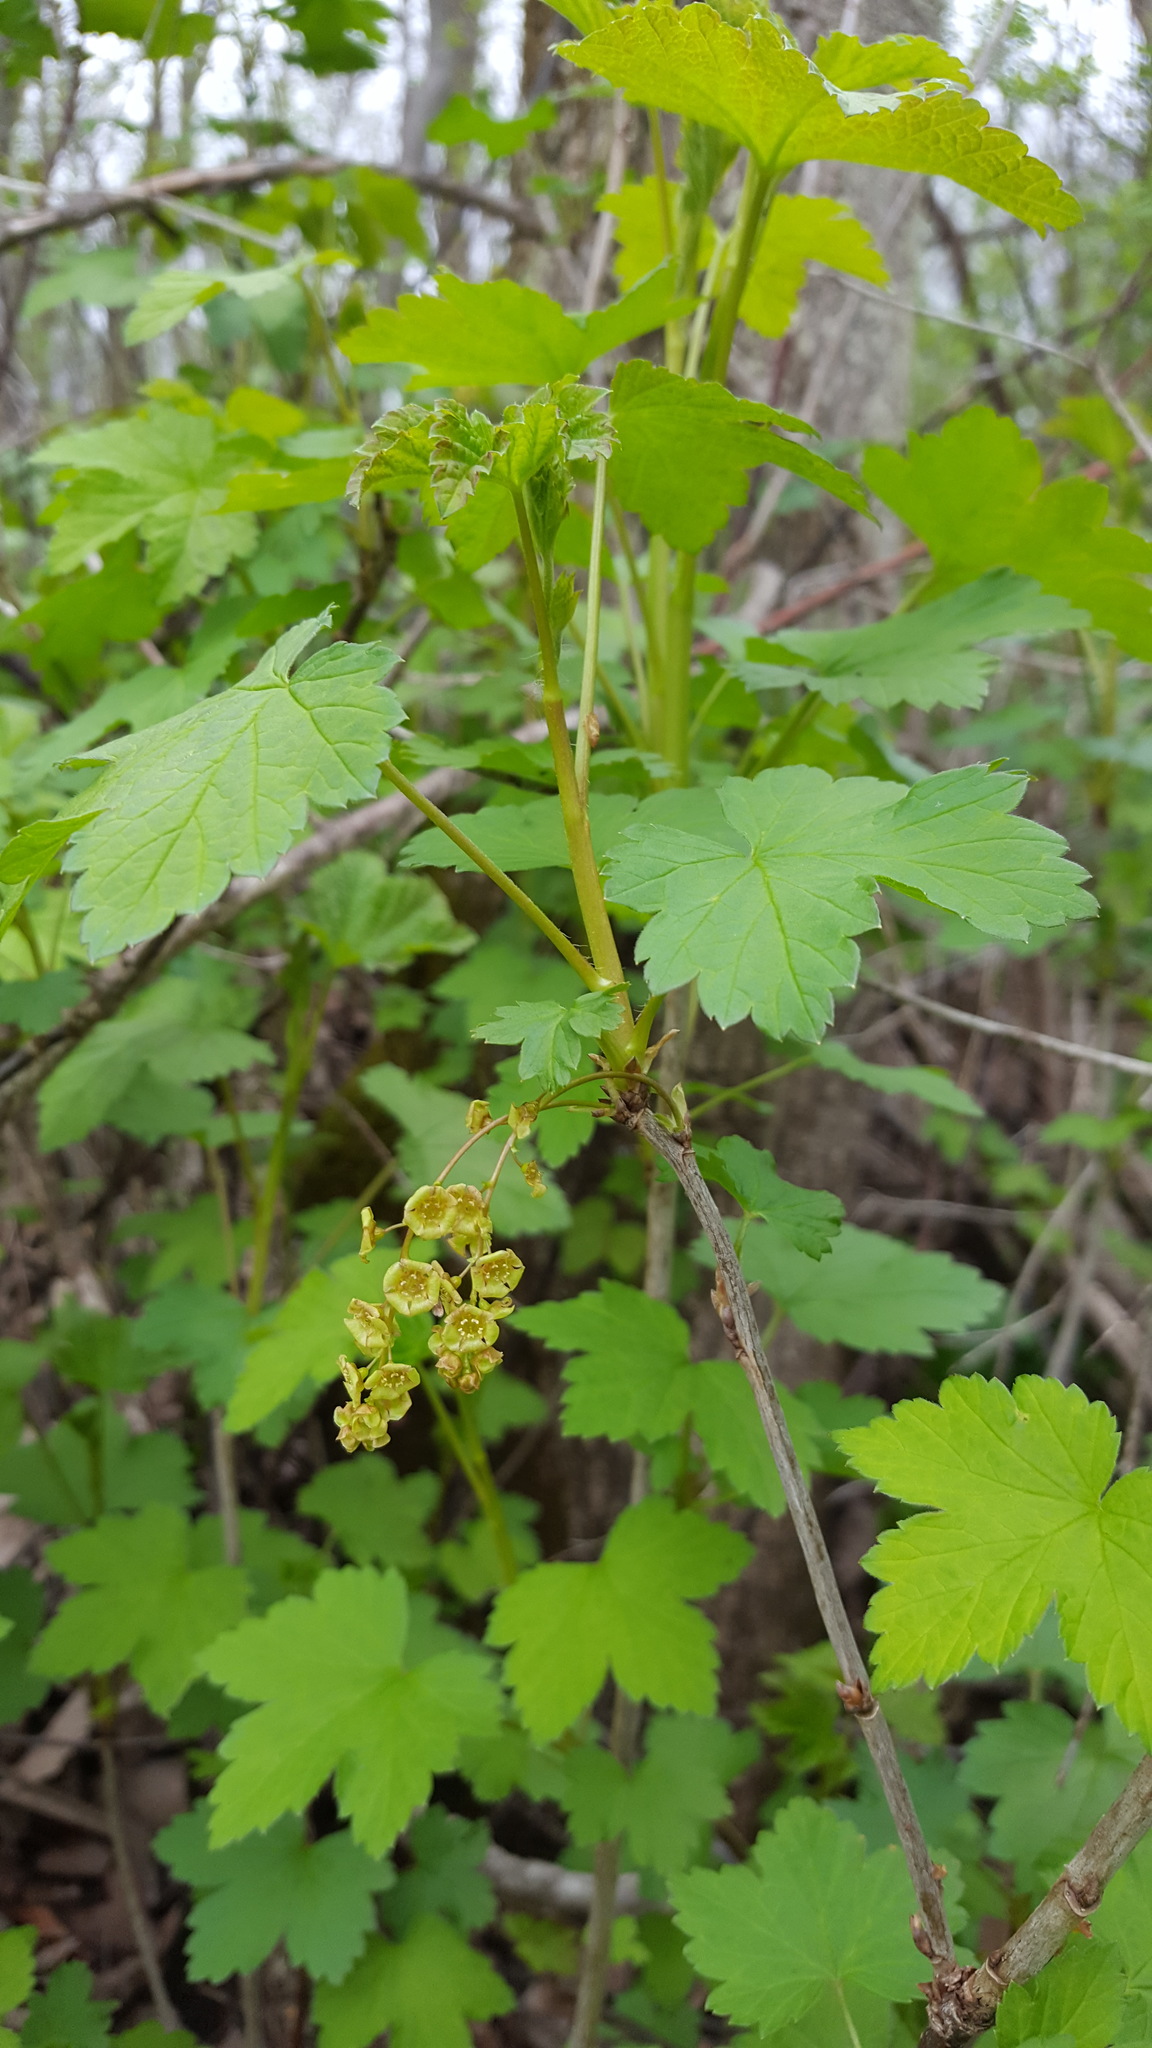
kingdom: Plantae
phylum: Tracheophyta
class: Magnoliopsida
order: Saxifragales
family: Grossulariaceae
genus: Ribes
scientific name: Ribes rubrum
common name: Red currant
